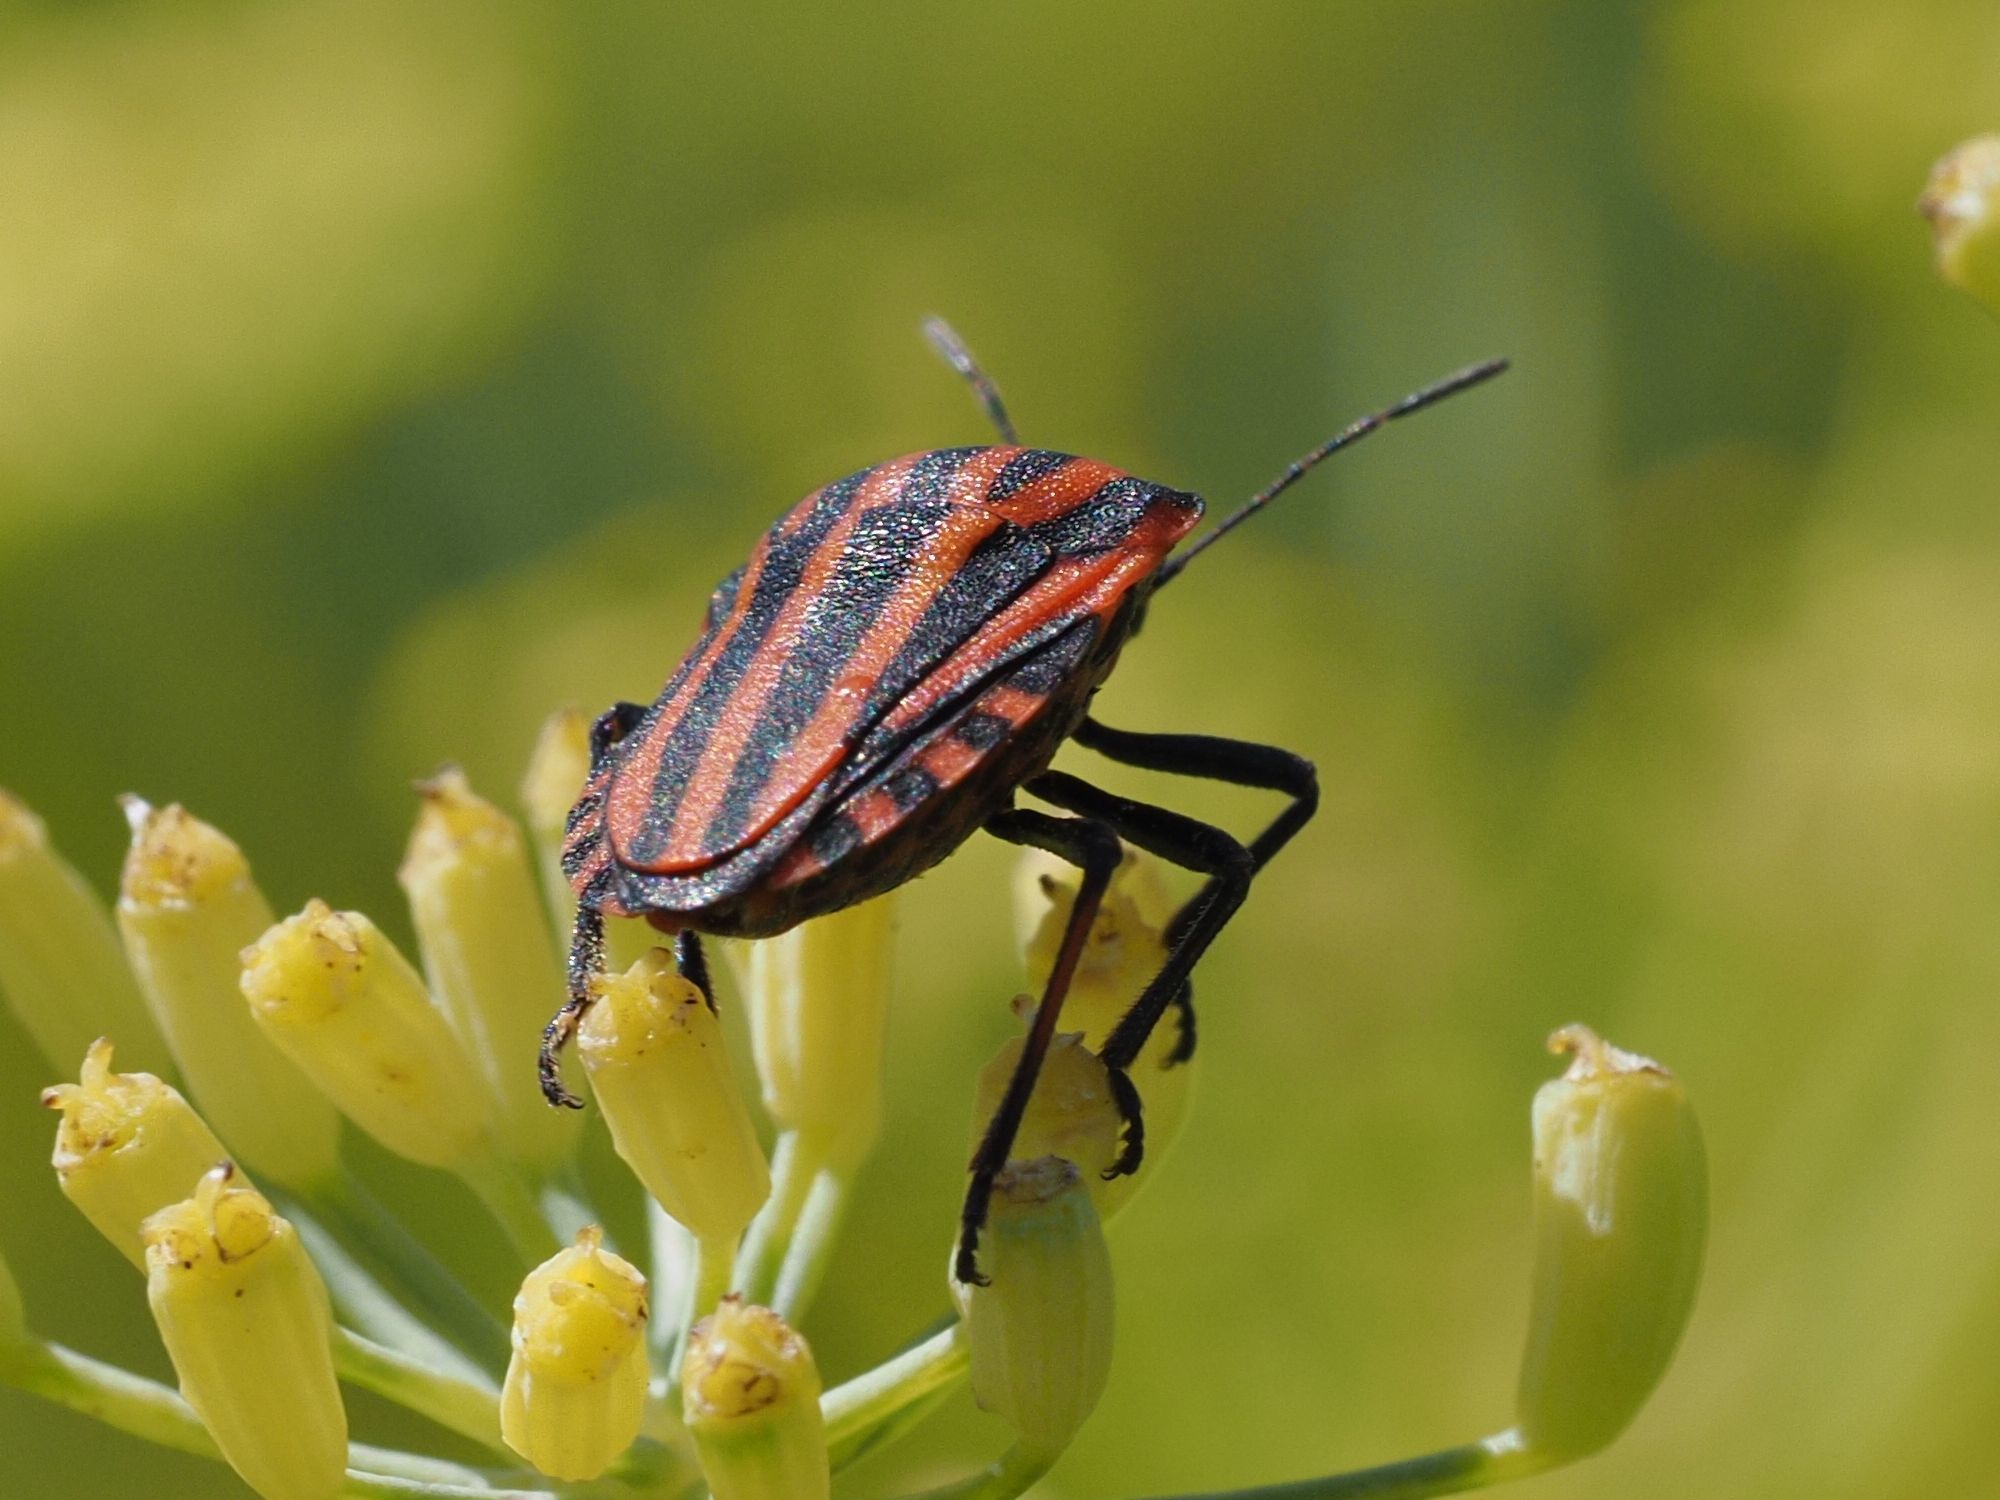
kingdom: Animalia
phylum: Arthropoda
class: Insecta
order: Hemiptera
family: Pentatomidae
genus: Graphosoma
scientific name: Graphosoma italicum
